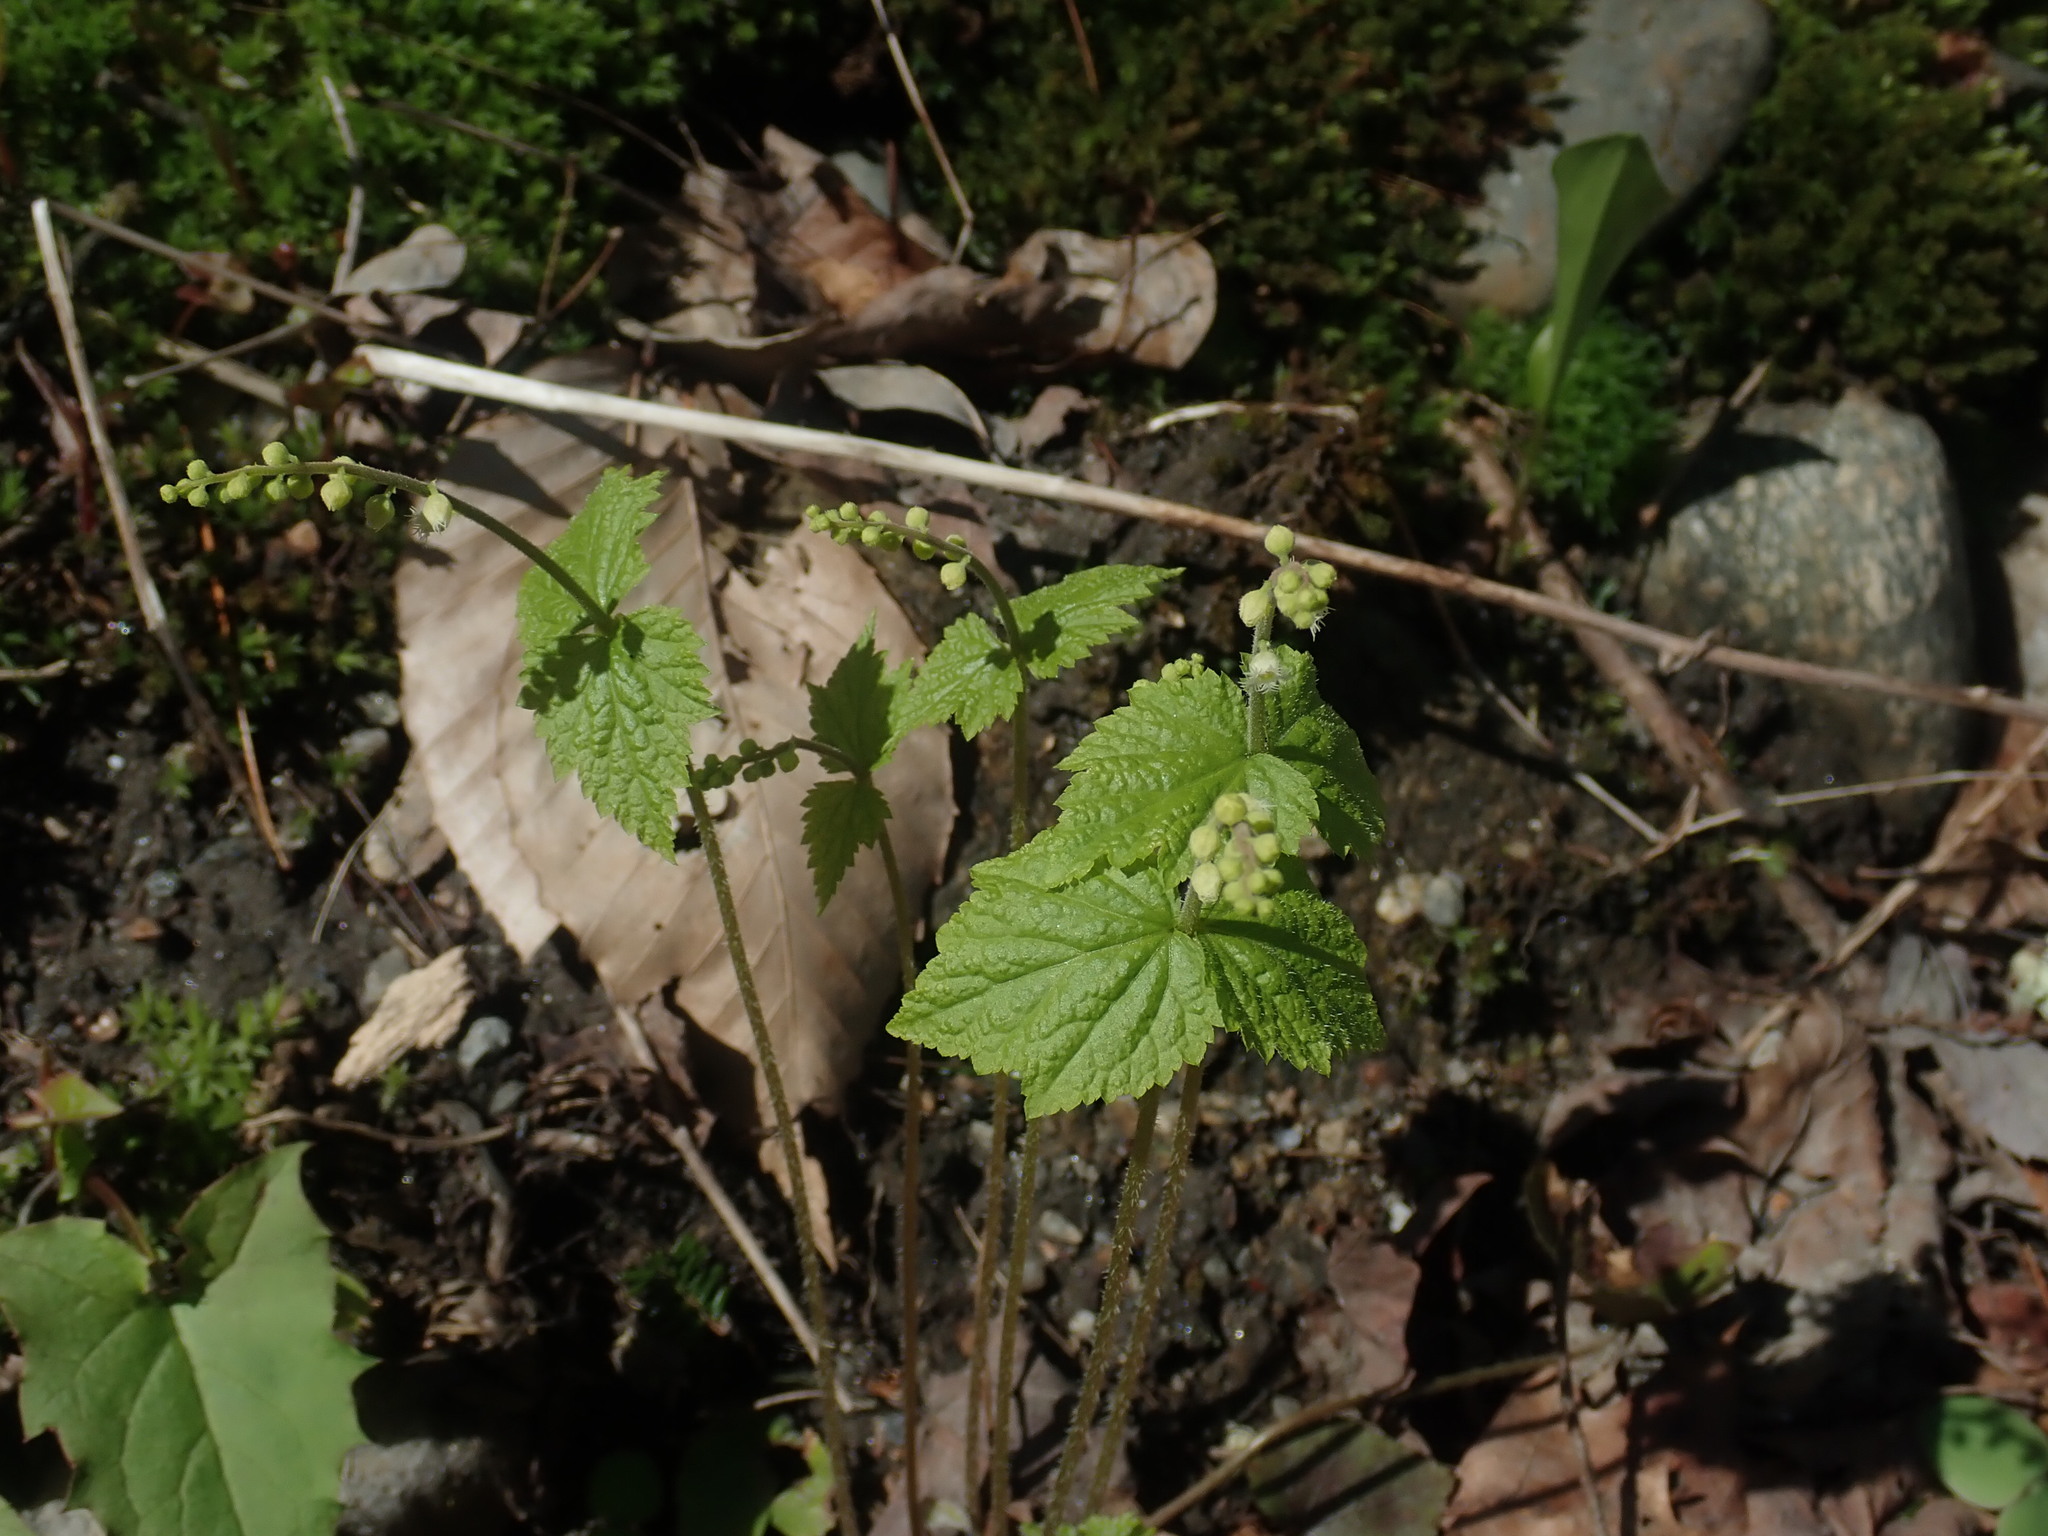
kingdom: Plantae
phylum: Tracheophyta
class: Magnoliopsida
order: Saxifragales
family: Saxifragaceae
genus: Mitella
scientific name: Mitella diphylla
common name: Coolwort
